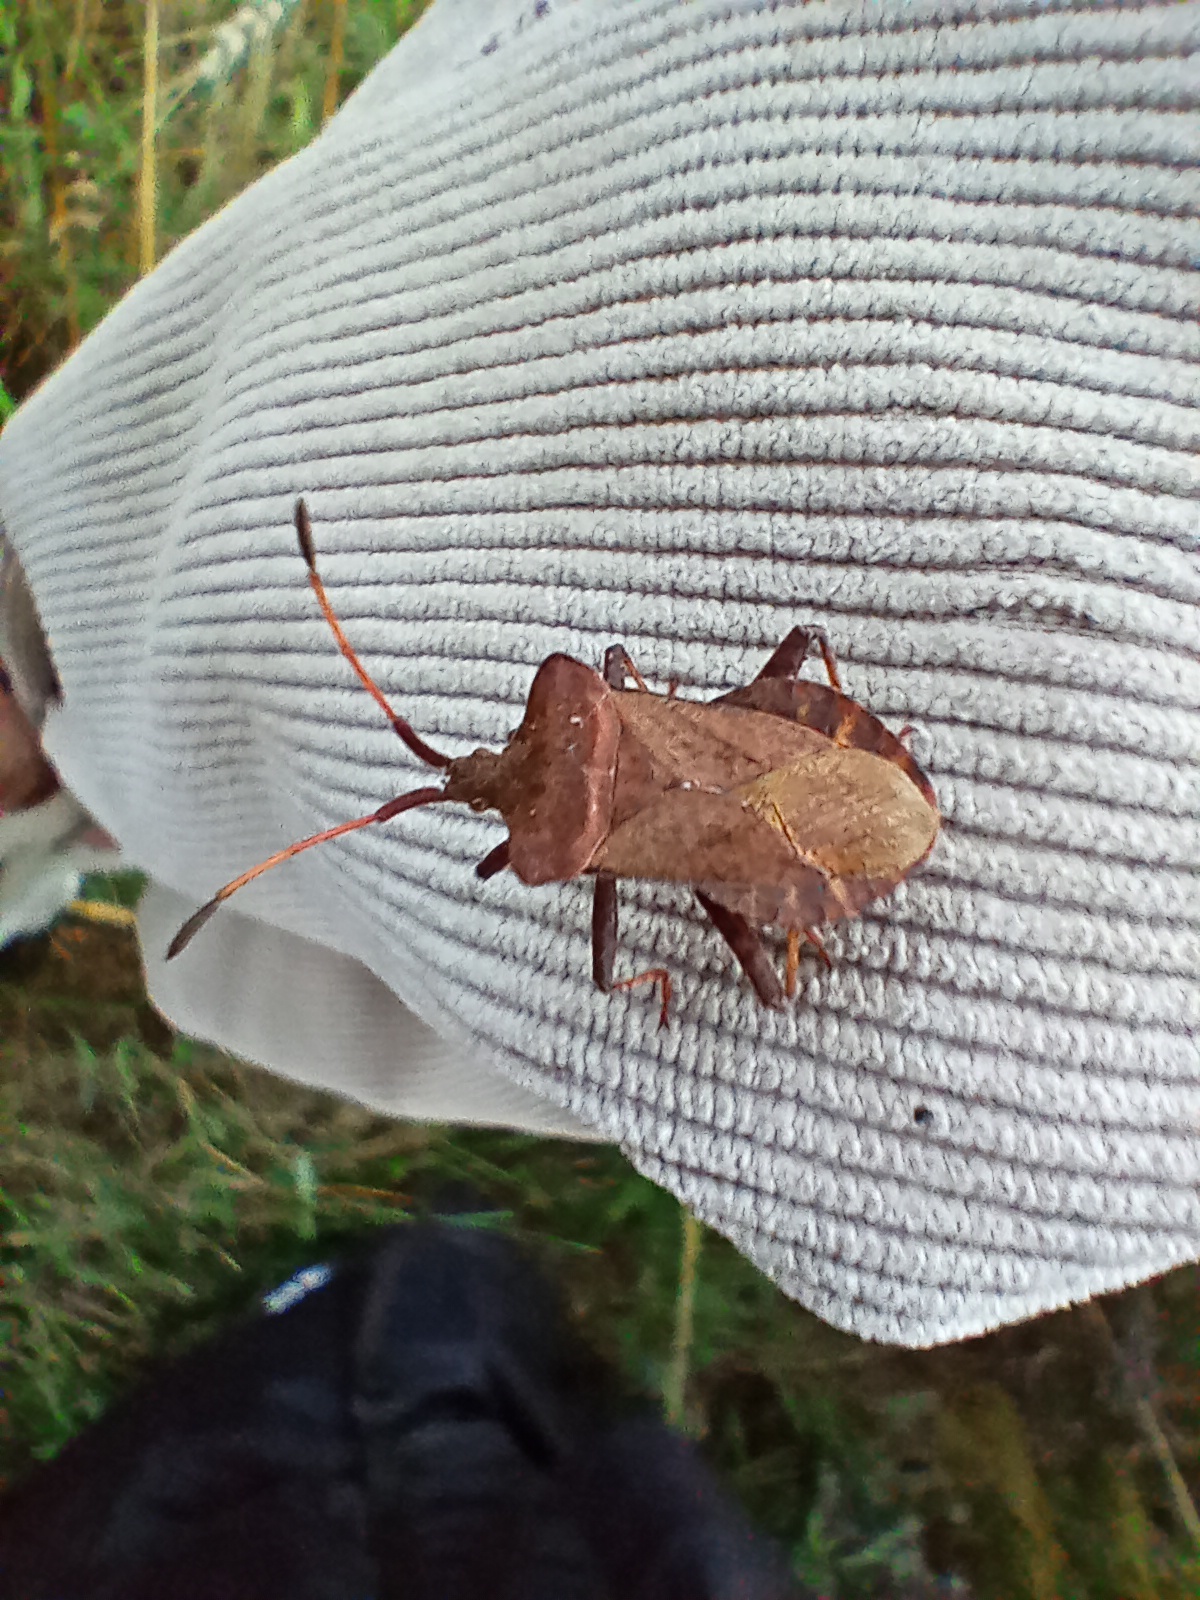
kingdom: Animalia
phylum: Arthropoda
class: Insecta
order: Hemiptera
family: Coreidae
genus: Coreus
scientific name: Coreus marginatus
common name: Dock bug
